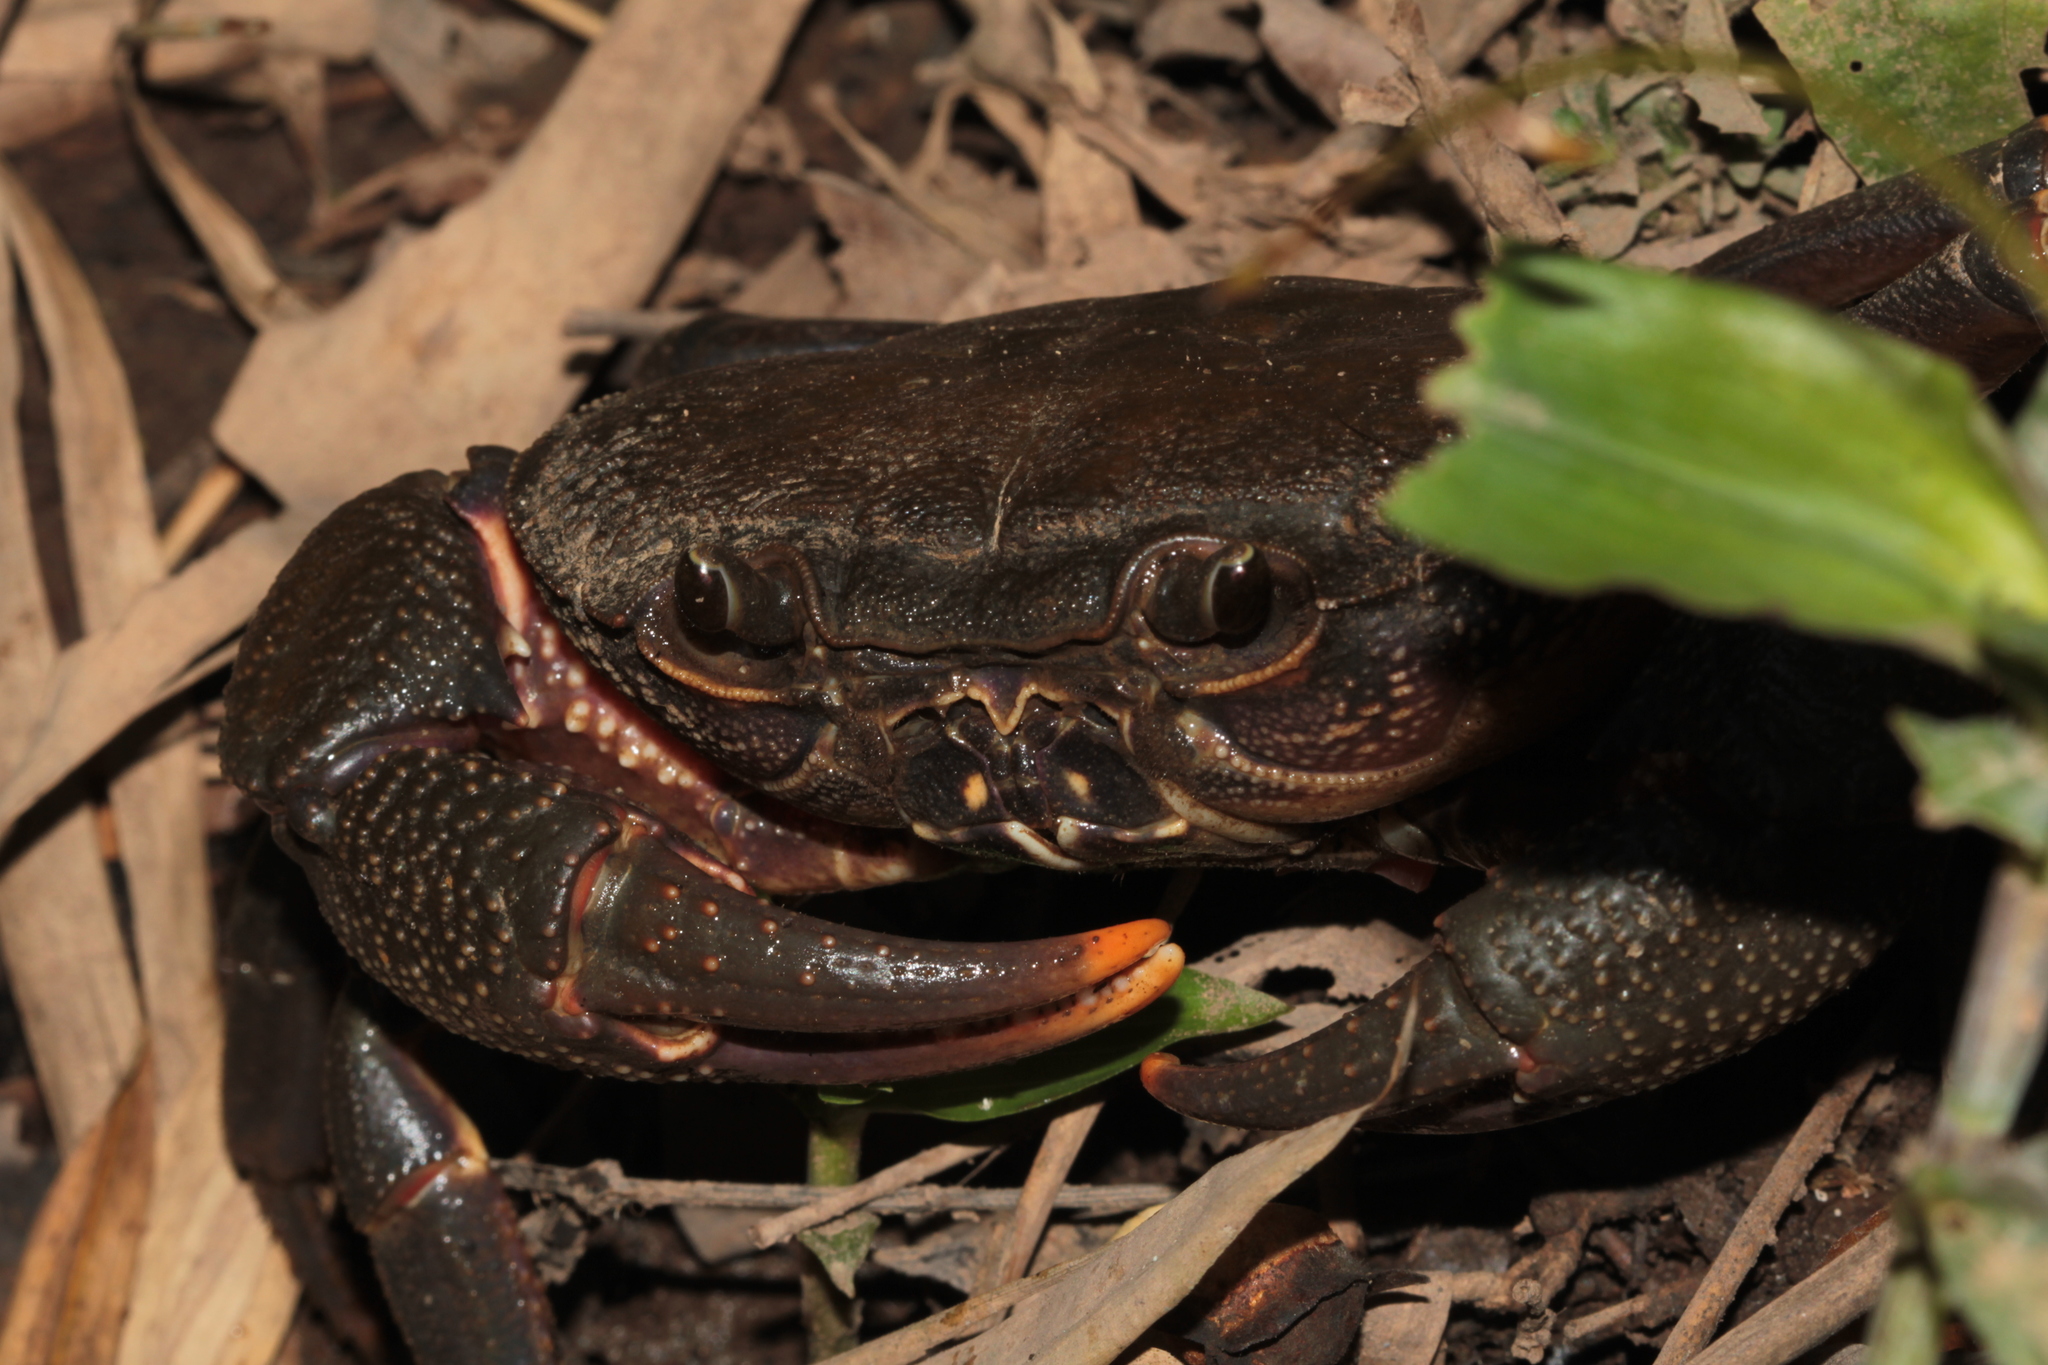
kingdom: Animalia
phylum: Arthropoda
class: Malacostraca
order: Decapoda
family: Potamidae
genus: Iomon
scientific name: Iomon nan
